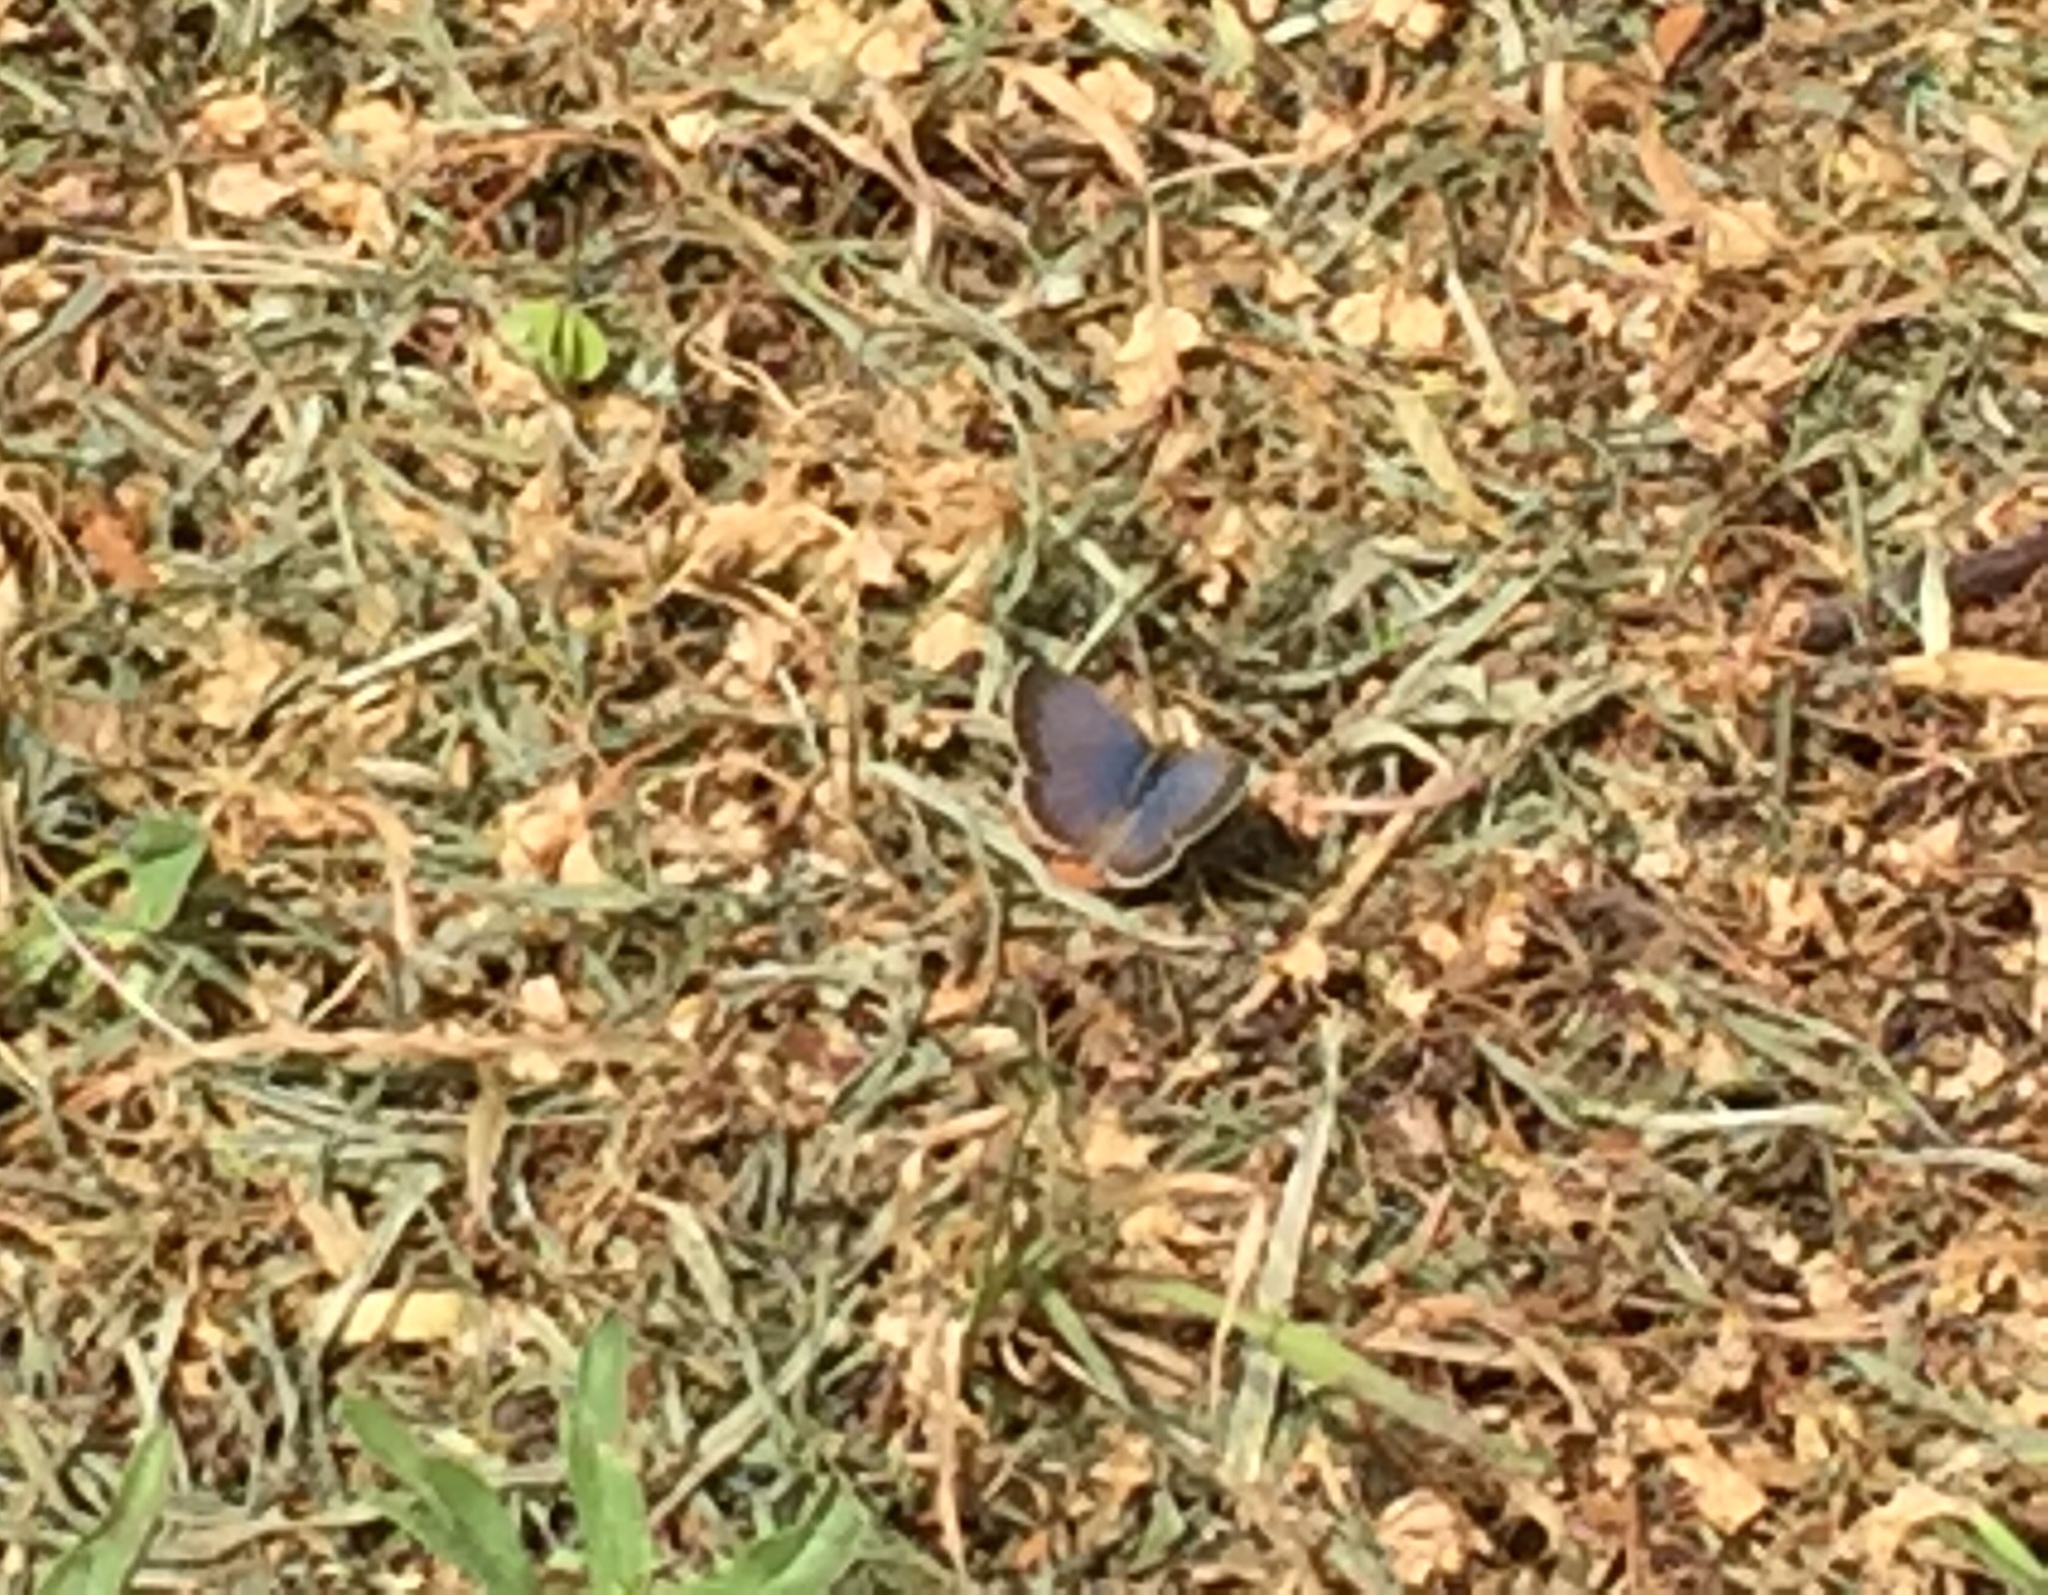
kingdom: Animalia
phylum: Arthropoda
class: Insecta
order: Lepidoptera
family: Lycaenidae
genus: Zizeeria
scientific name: Zizeeria knysna
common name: African grass blue
